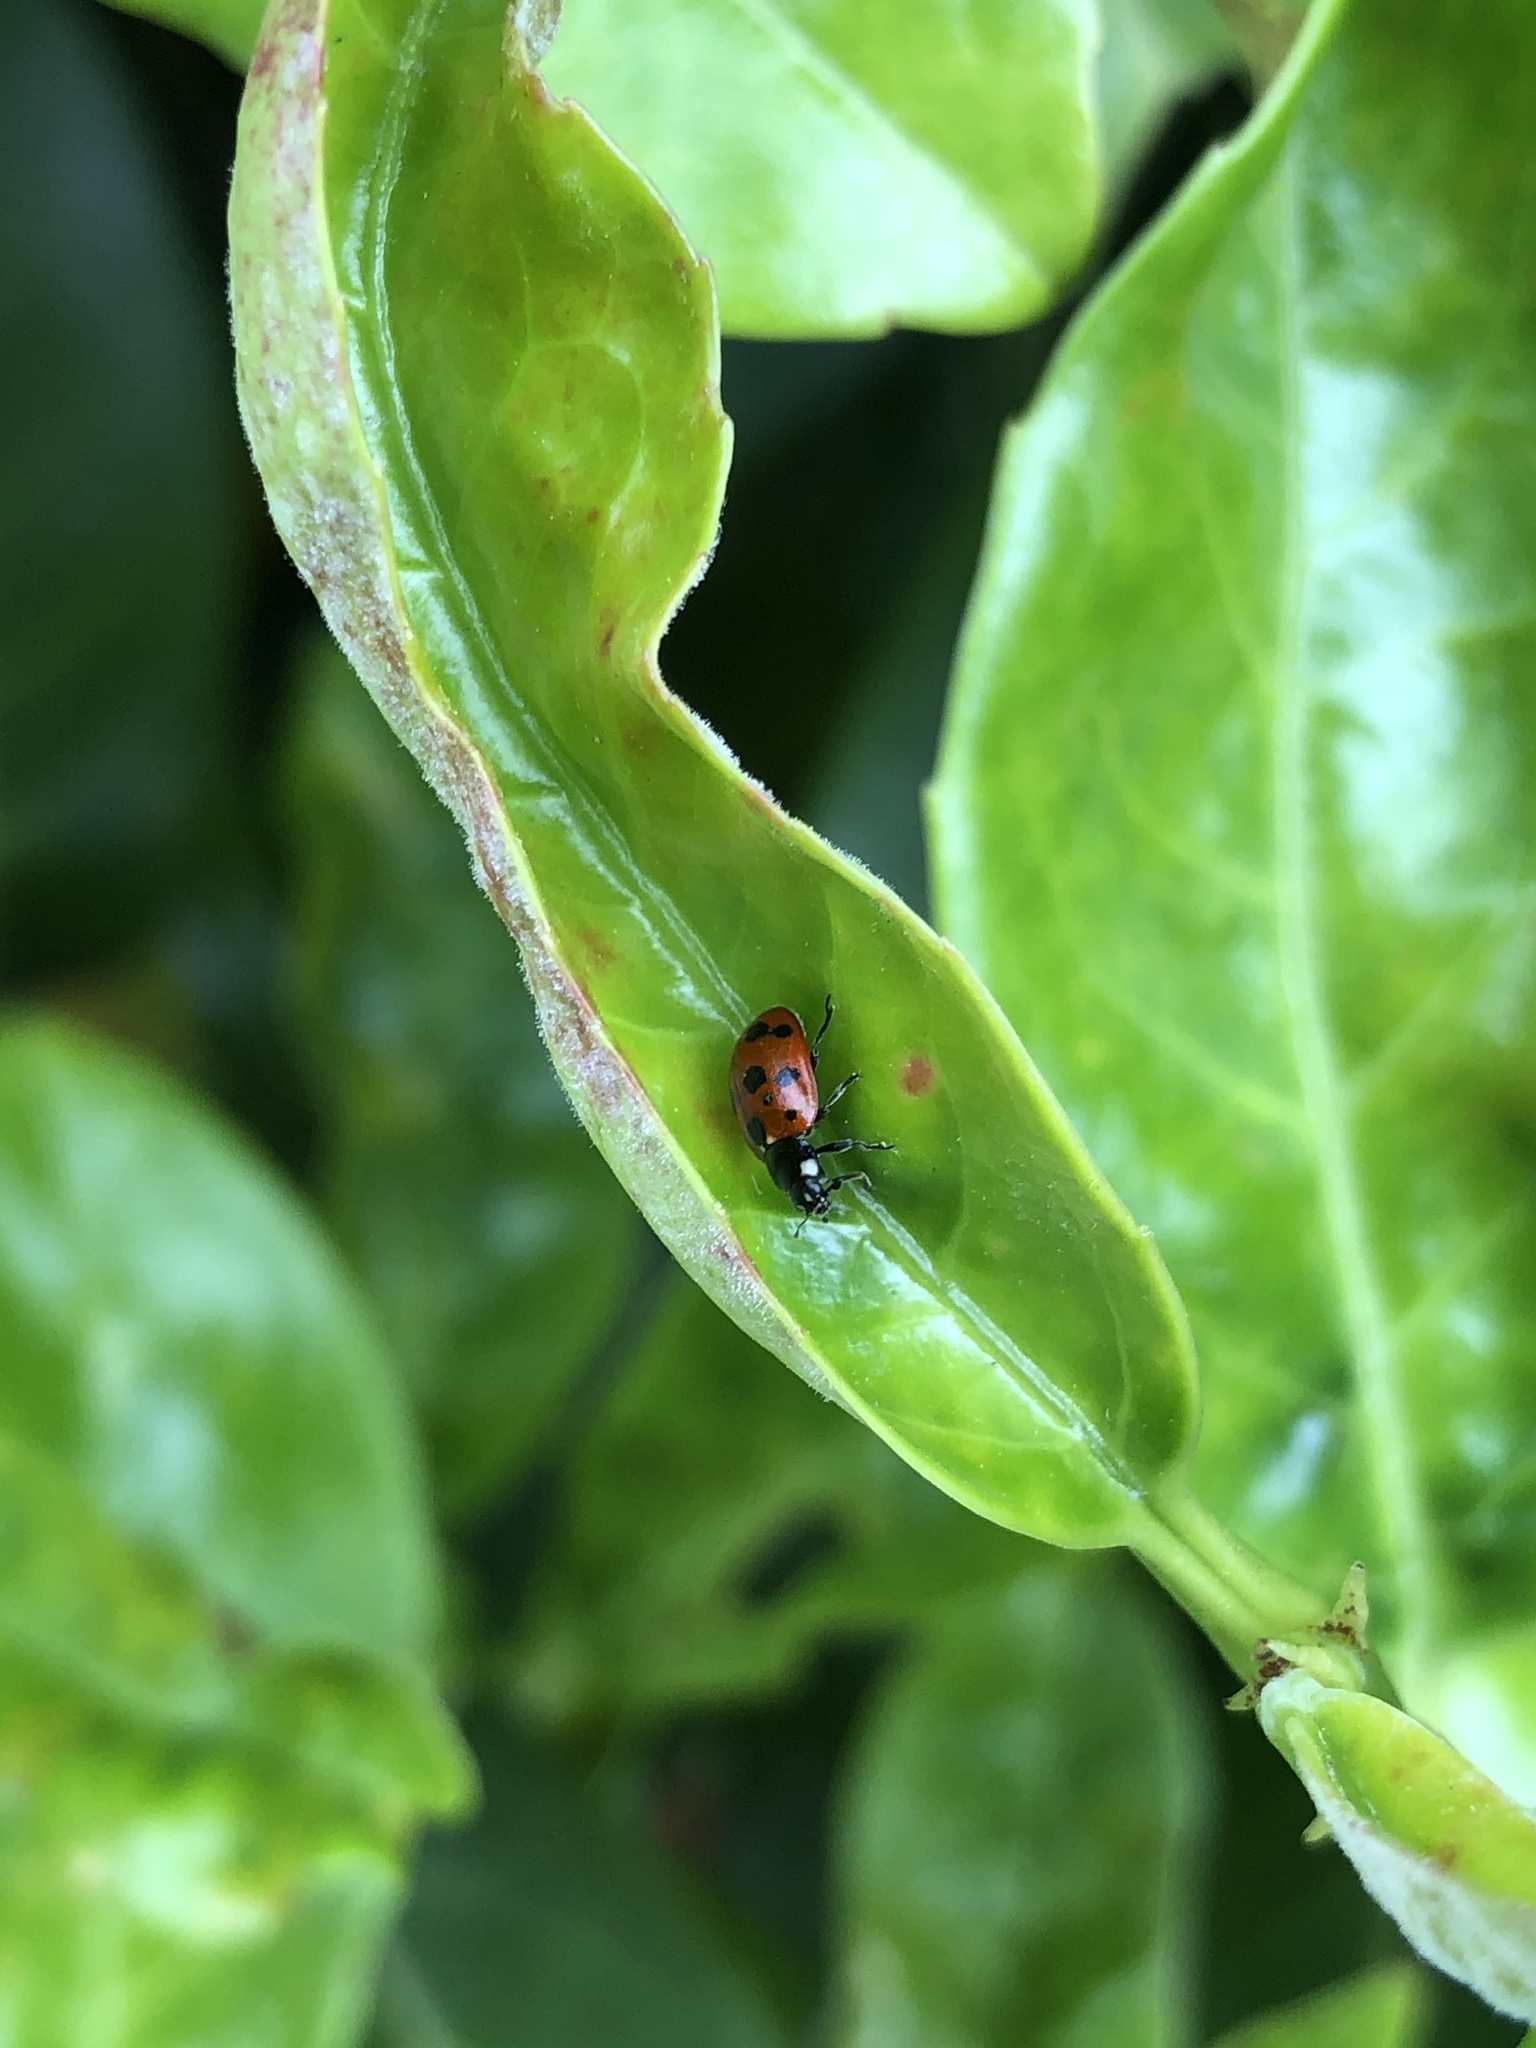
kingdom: Animalia
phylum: Arthropoda
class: Insecta
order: Coleoptera
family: Coccinellidae
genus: Coccinella
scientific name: Coccinella undecimpunctata
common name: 11-spot ladybird
